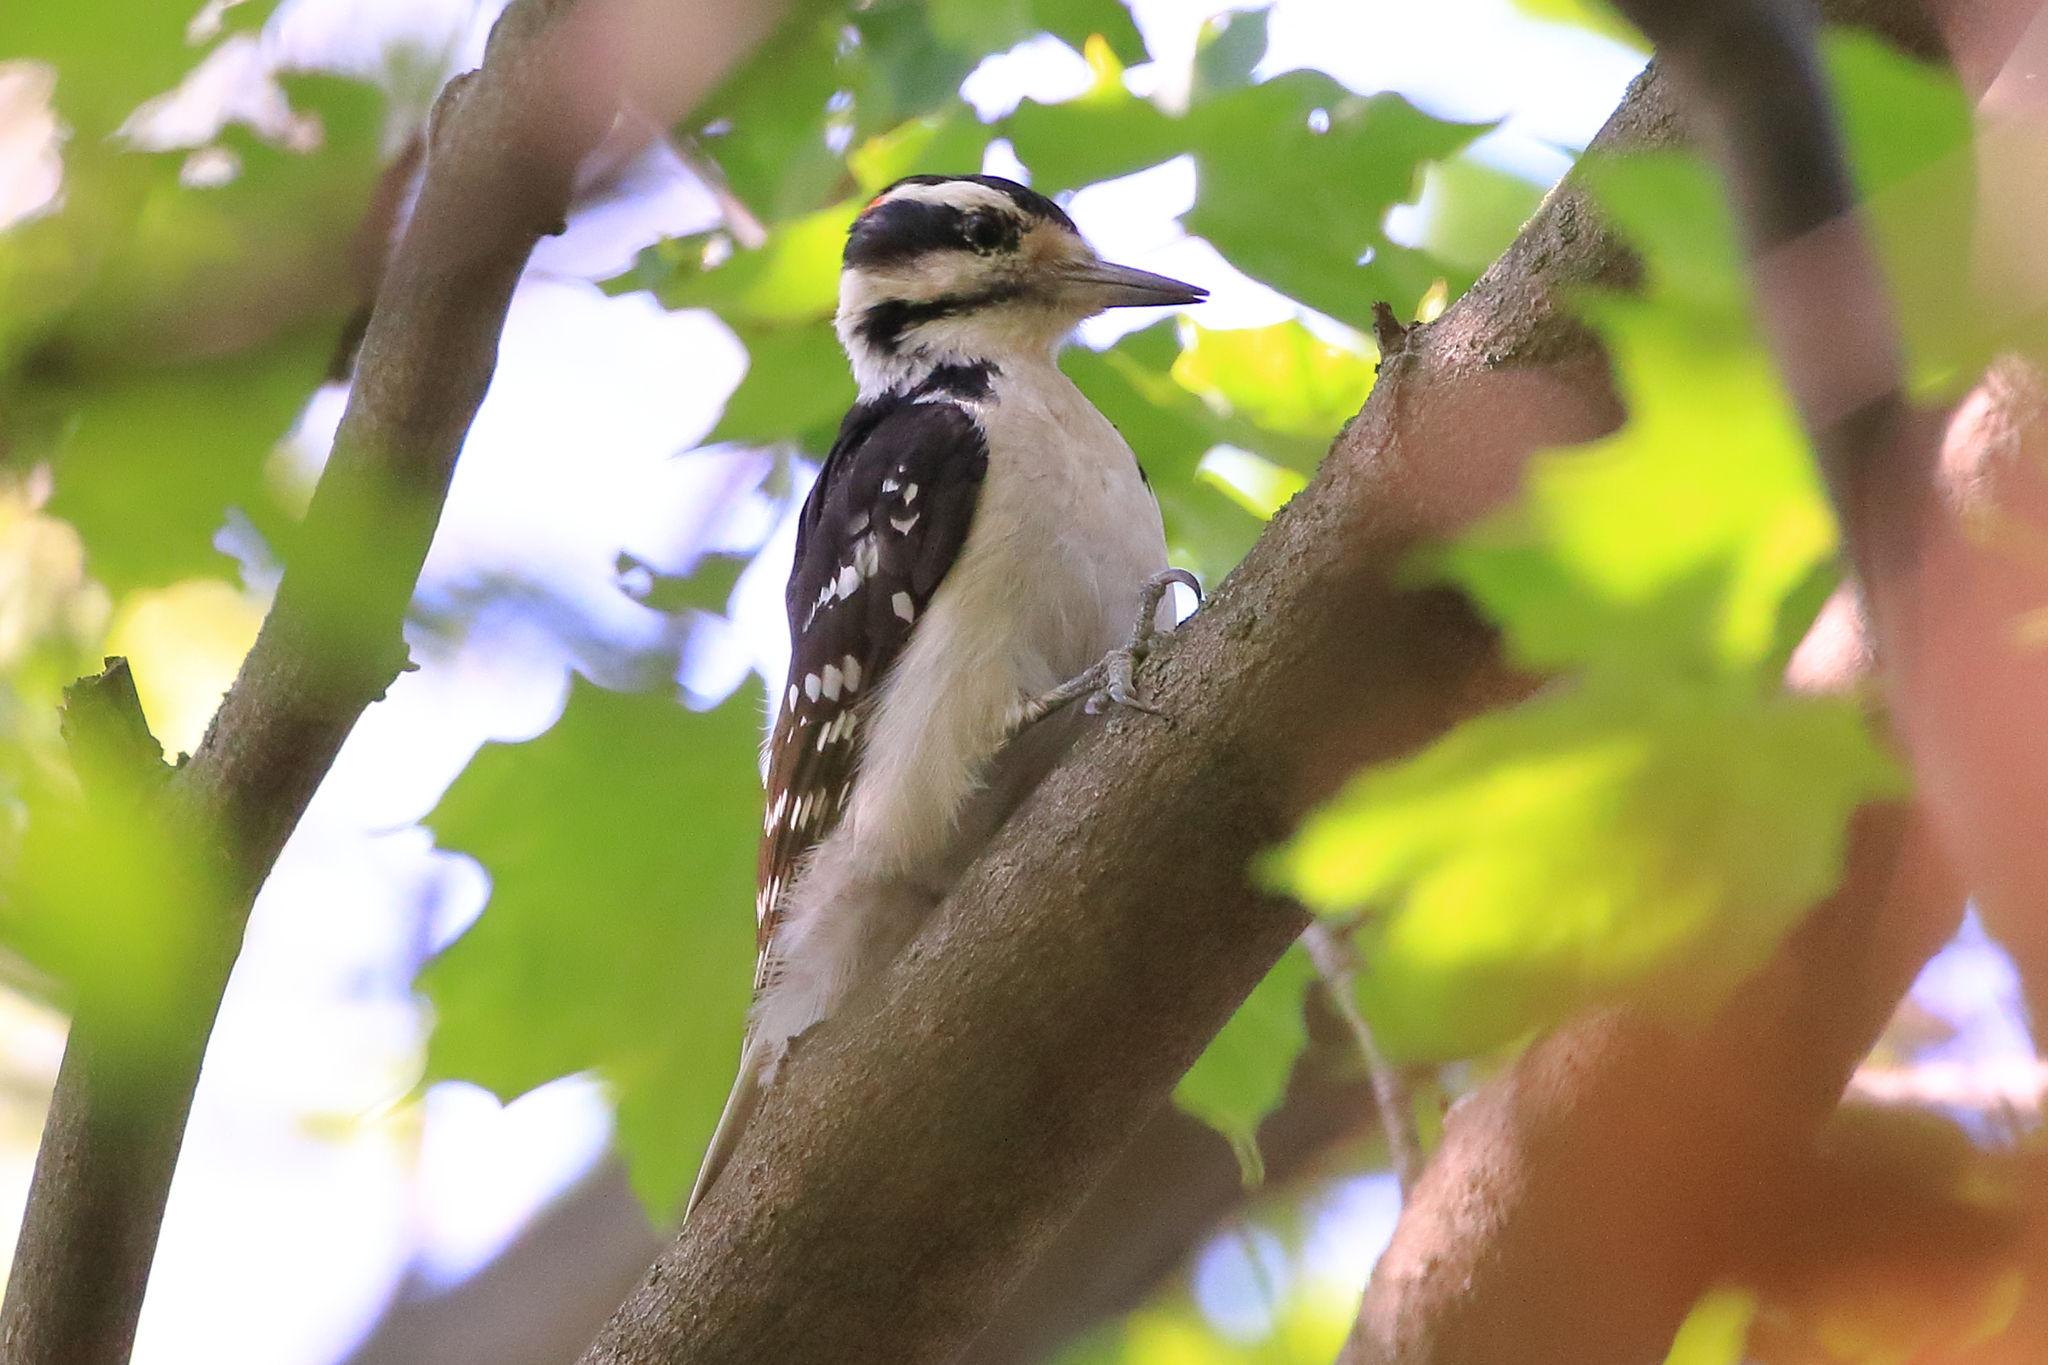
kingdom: Animalia
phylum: Chordata
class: Aves
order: Piciformes
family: Picidae
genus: Leuconotopicus
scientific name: Leuconotopicus villosus
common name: Hairy woodpecker
